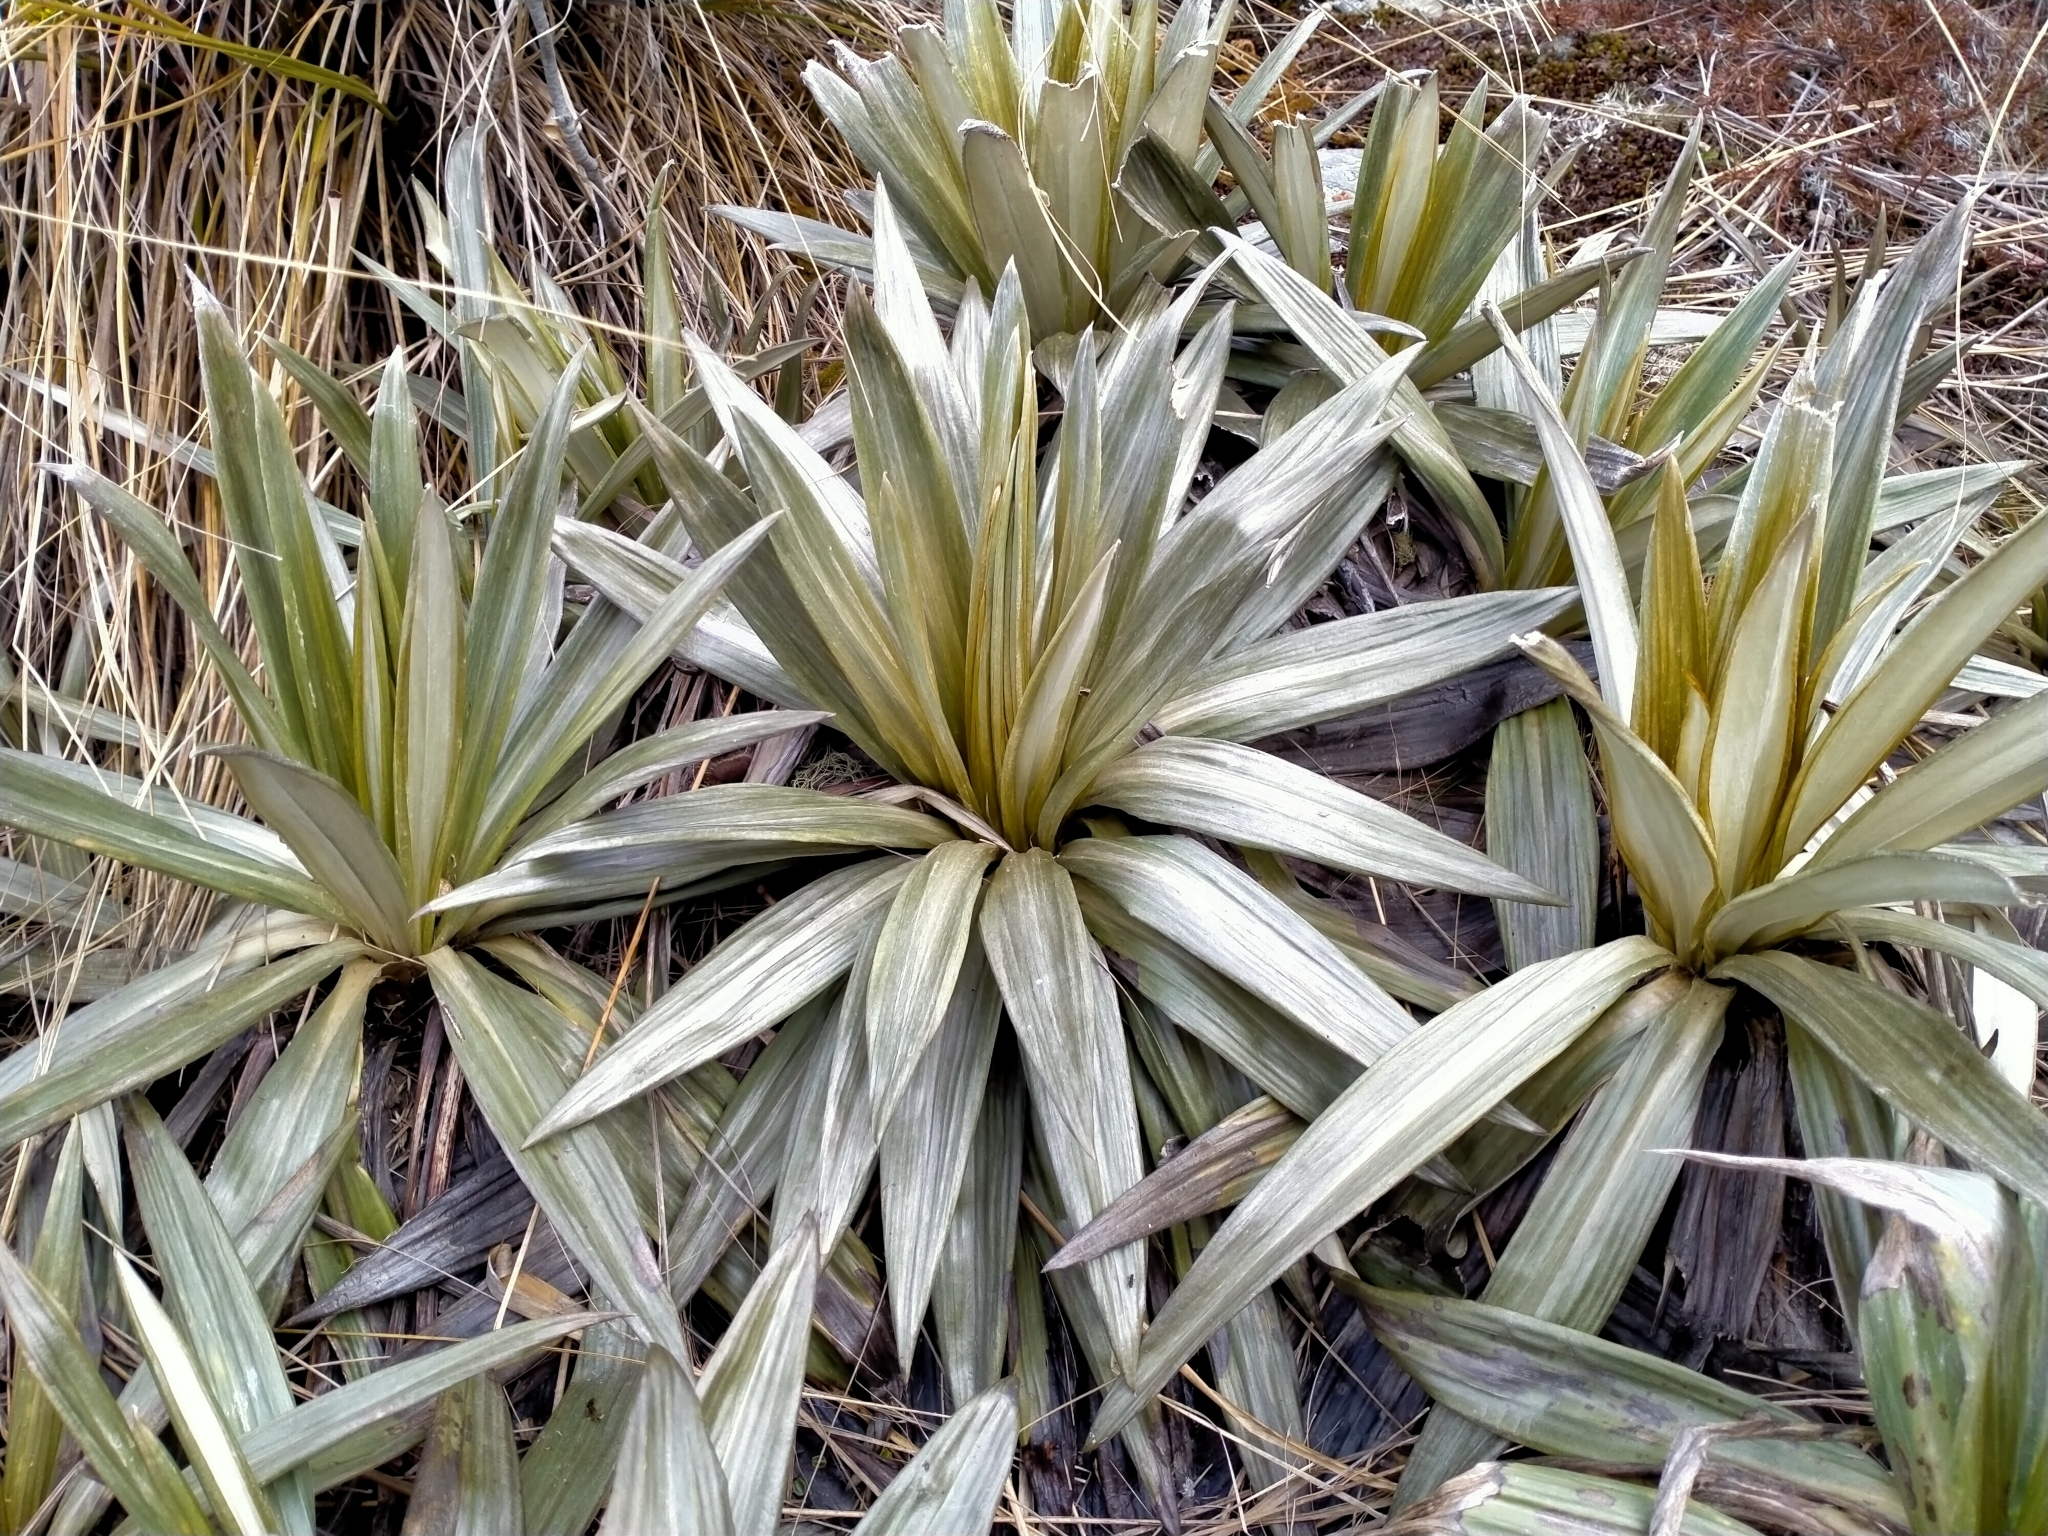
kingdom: Plantae
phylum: Tracheophyta
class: Magnoliopsida
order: Asterales
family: Asteraceae
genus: Celmisia
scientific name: Celmisia semicordata
